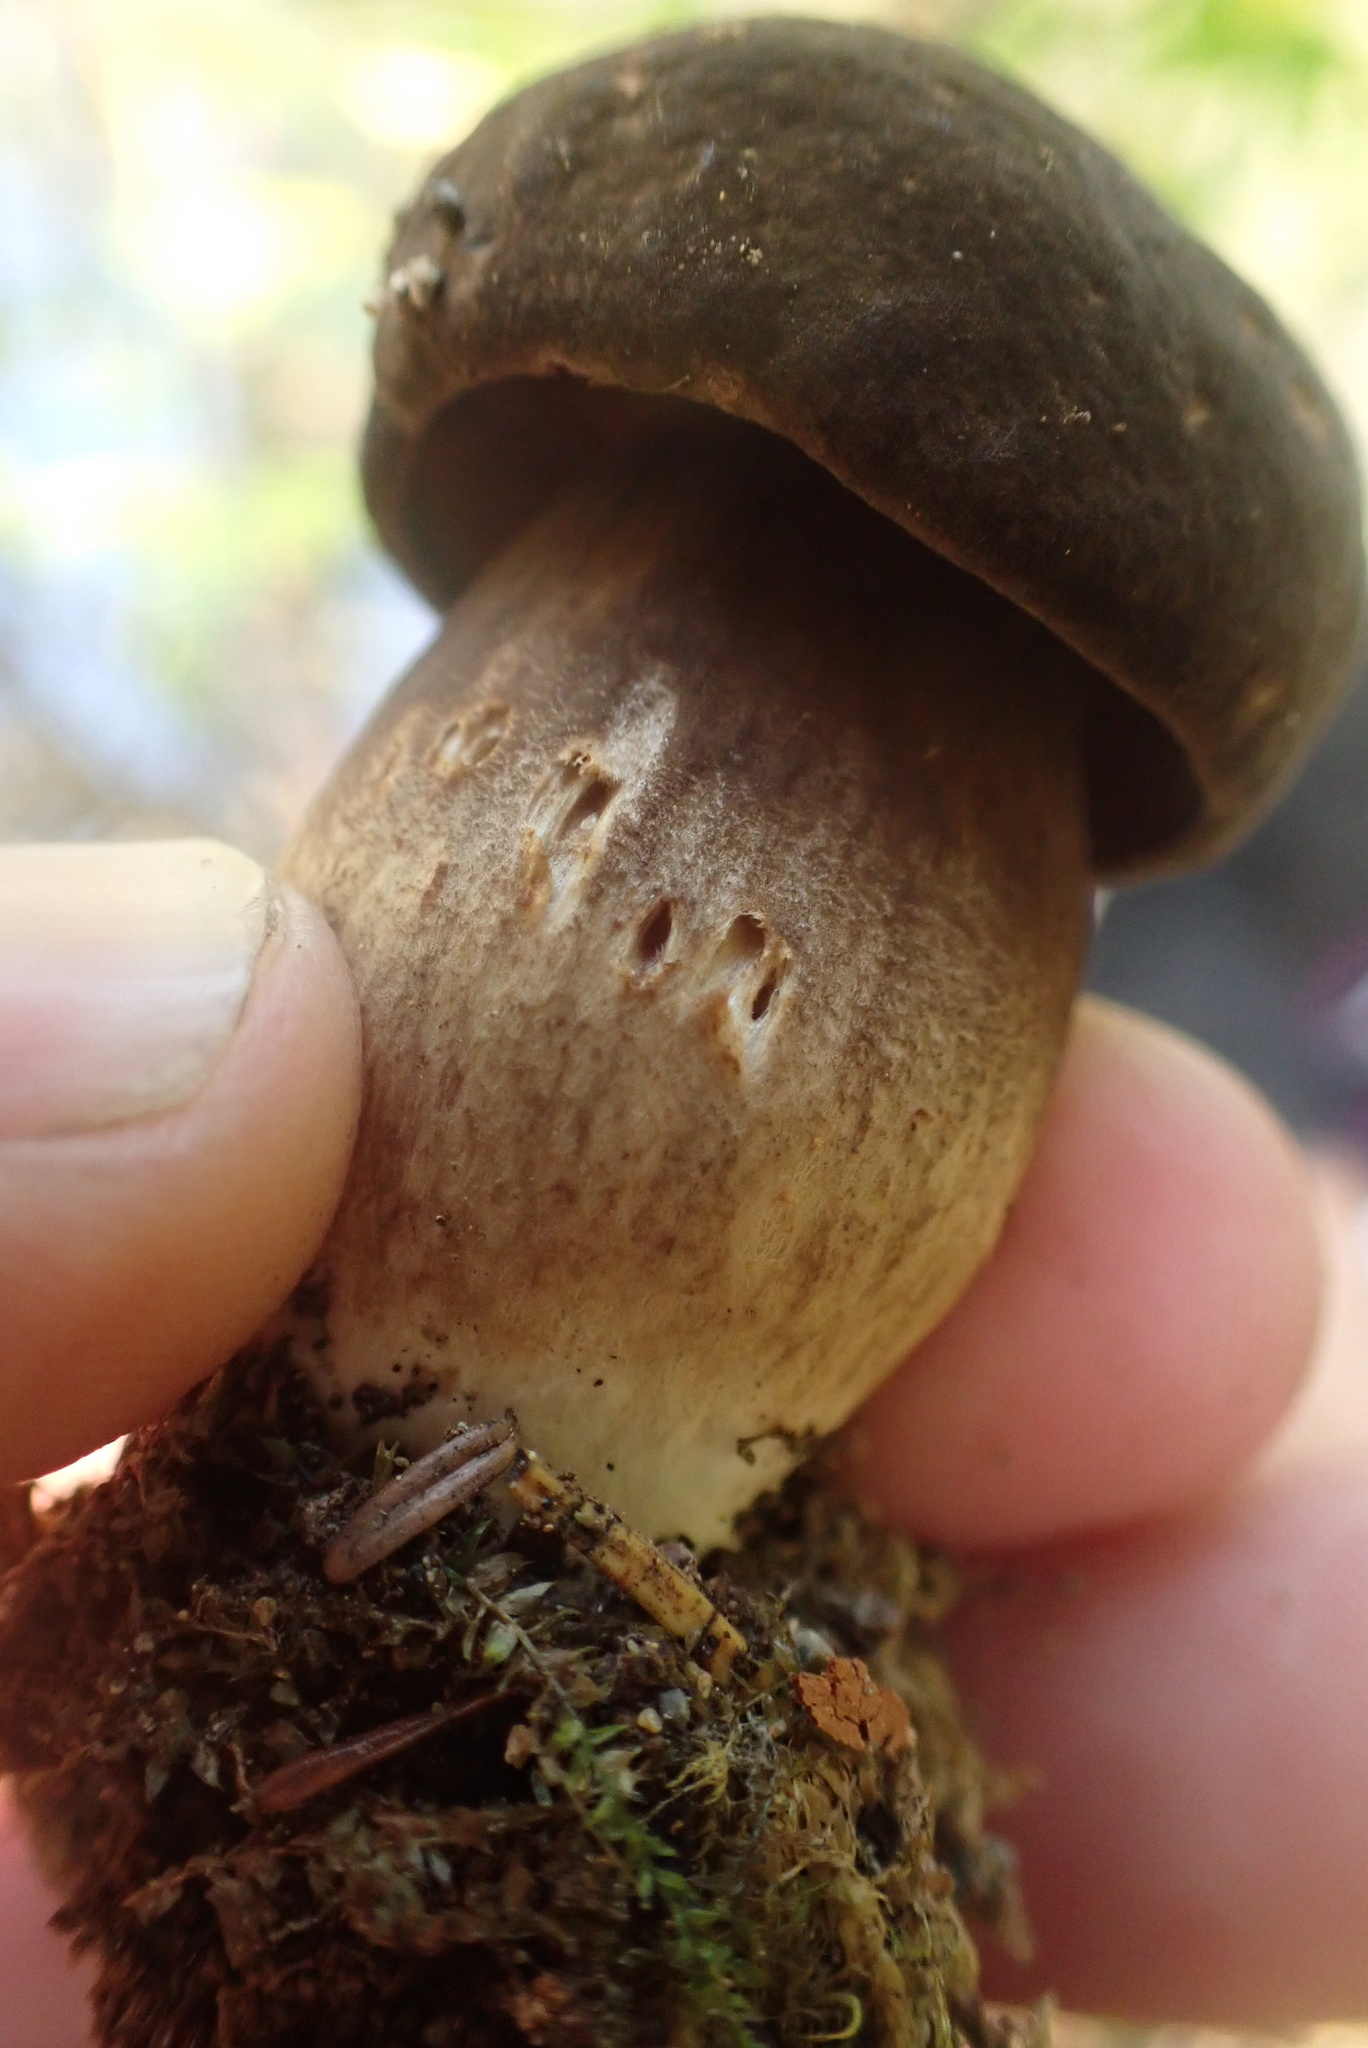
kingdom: Fungi
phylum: Basidiomycota
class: Agaricomycetes
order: Boletales
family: Boletaceae
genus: Porphyrellus
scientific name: Porphyrellus porphyrosporus
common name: Dusky bolete
